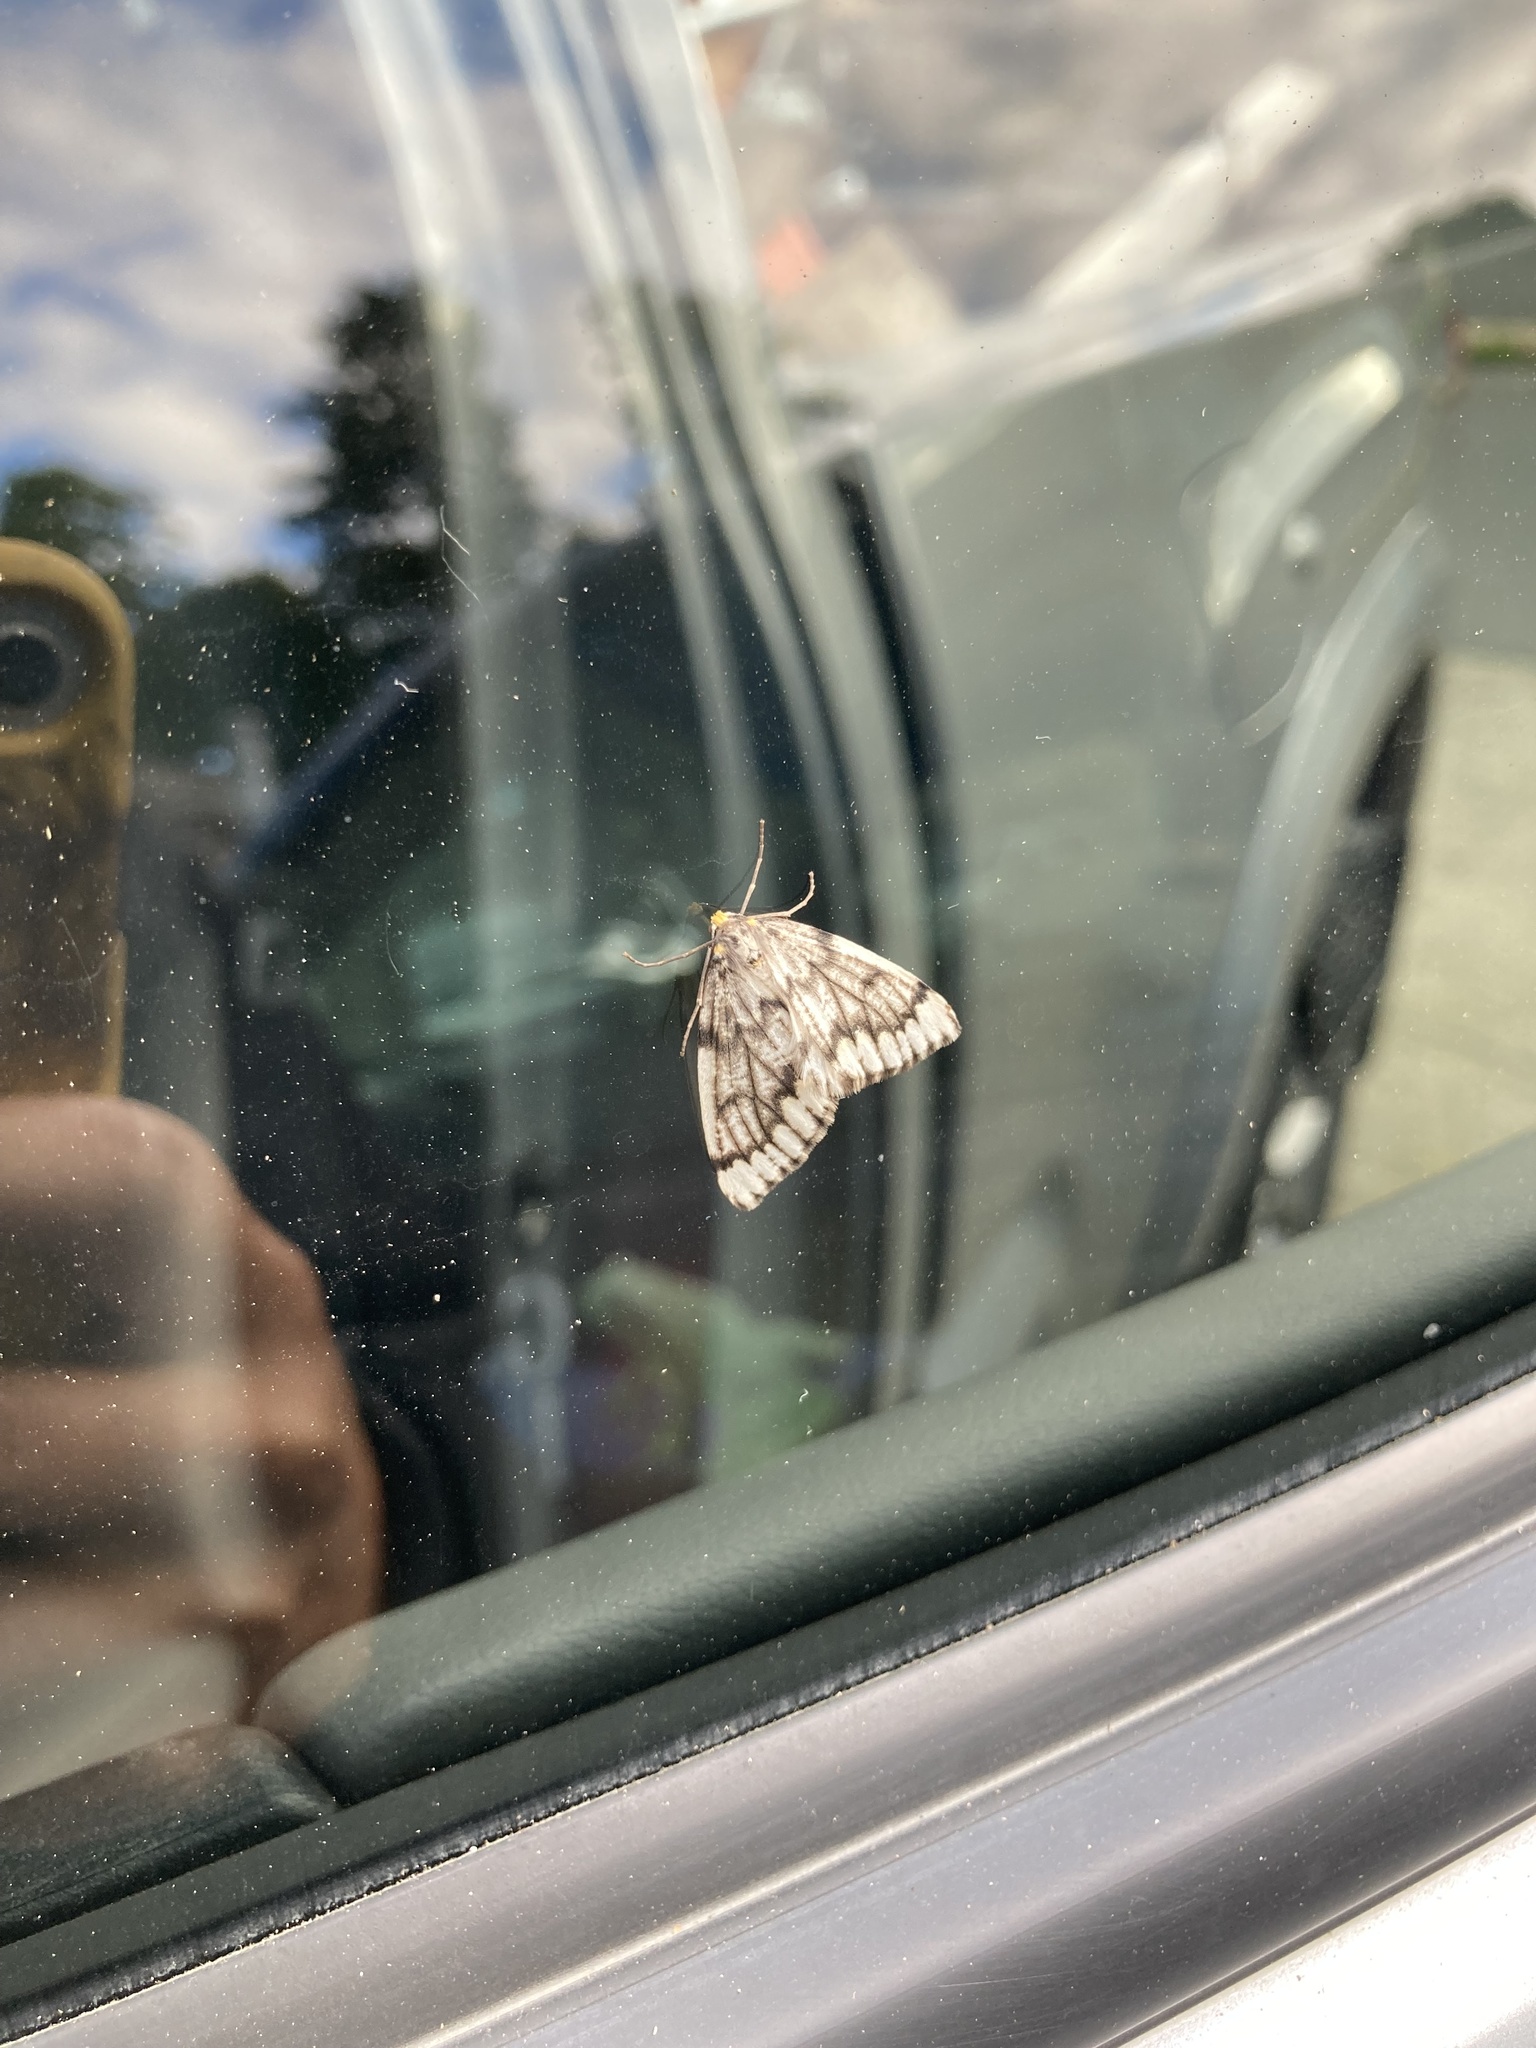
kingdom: Animalia
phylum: Arthropoda
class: Insecta
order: Lepidoptera
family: Geometridae
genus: Nepytia
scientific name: Nepytia phantasmaria
